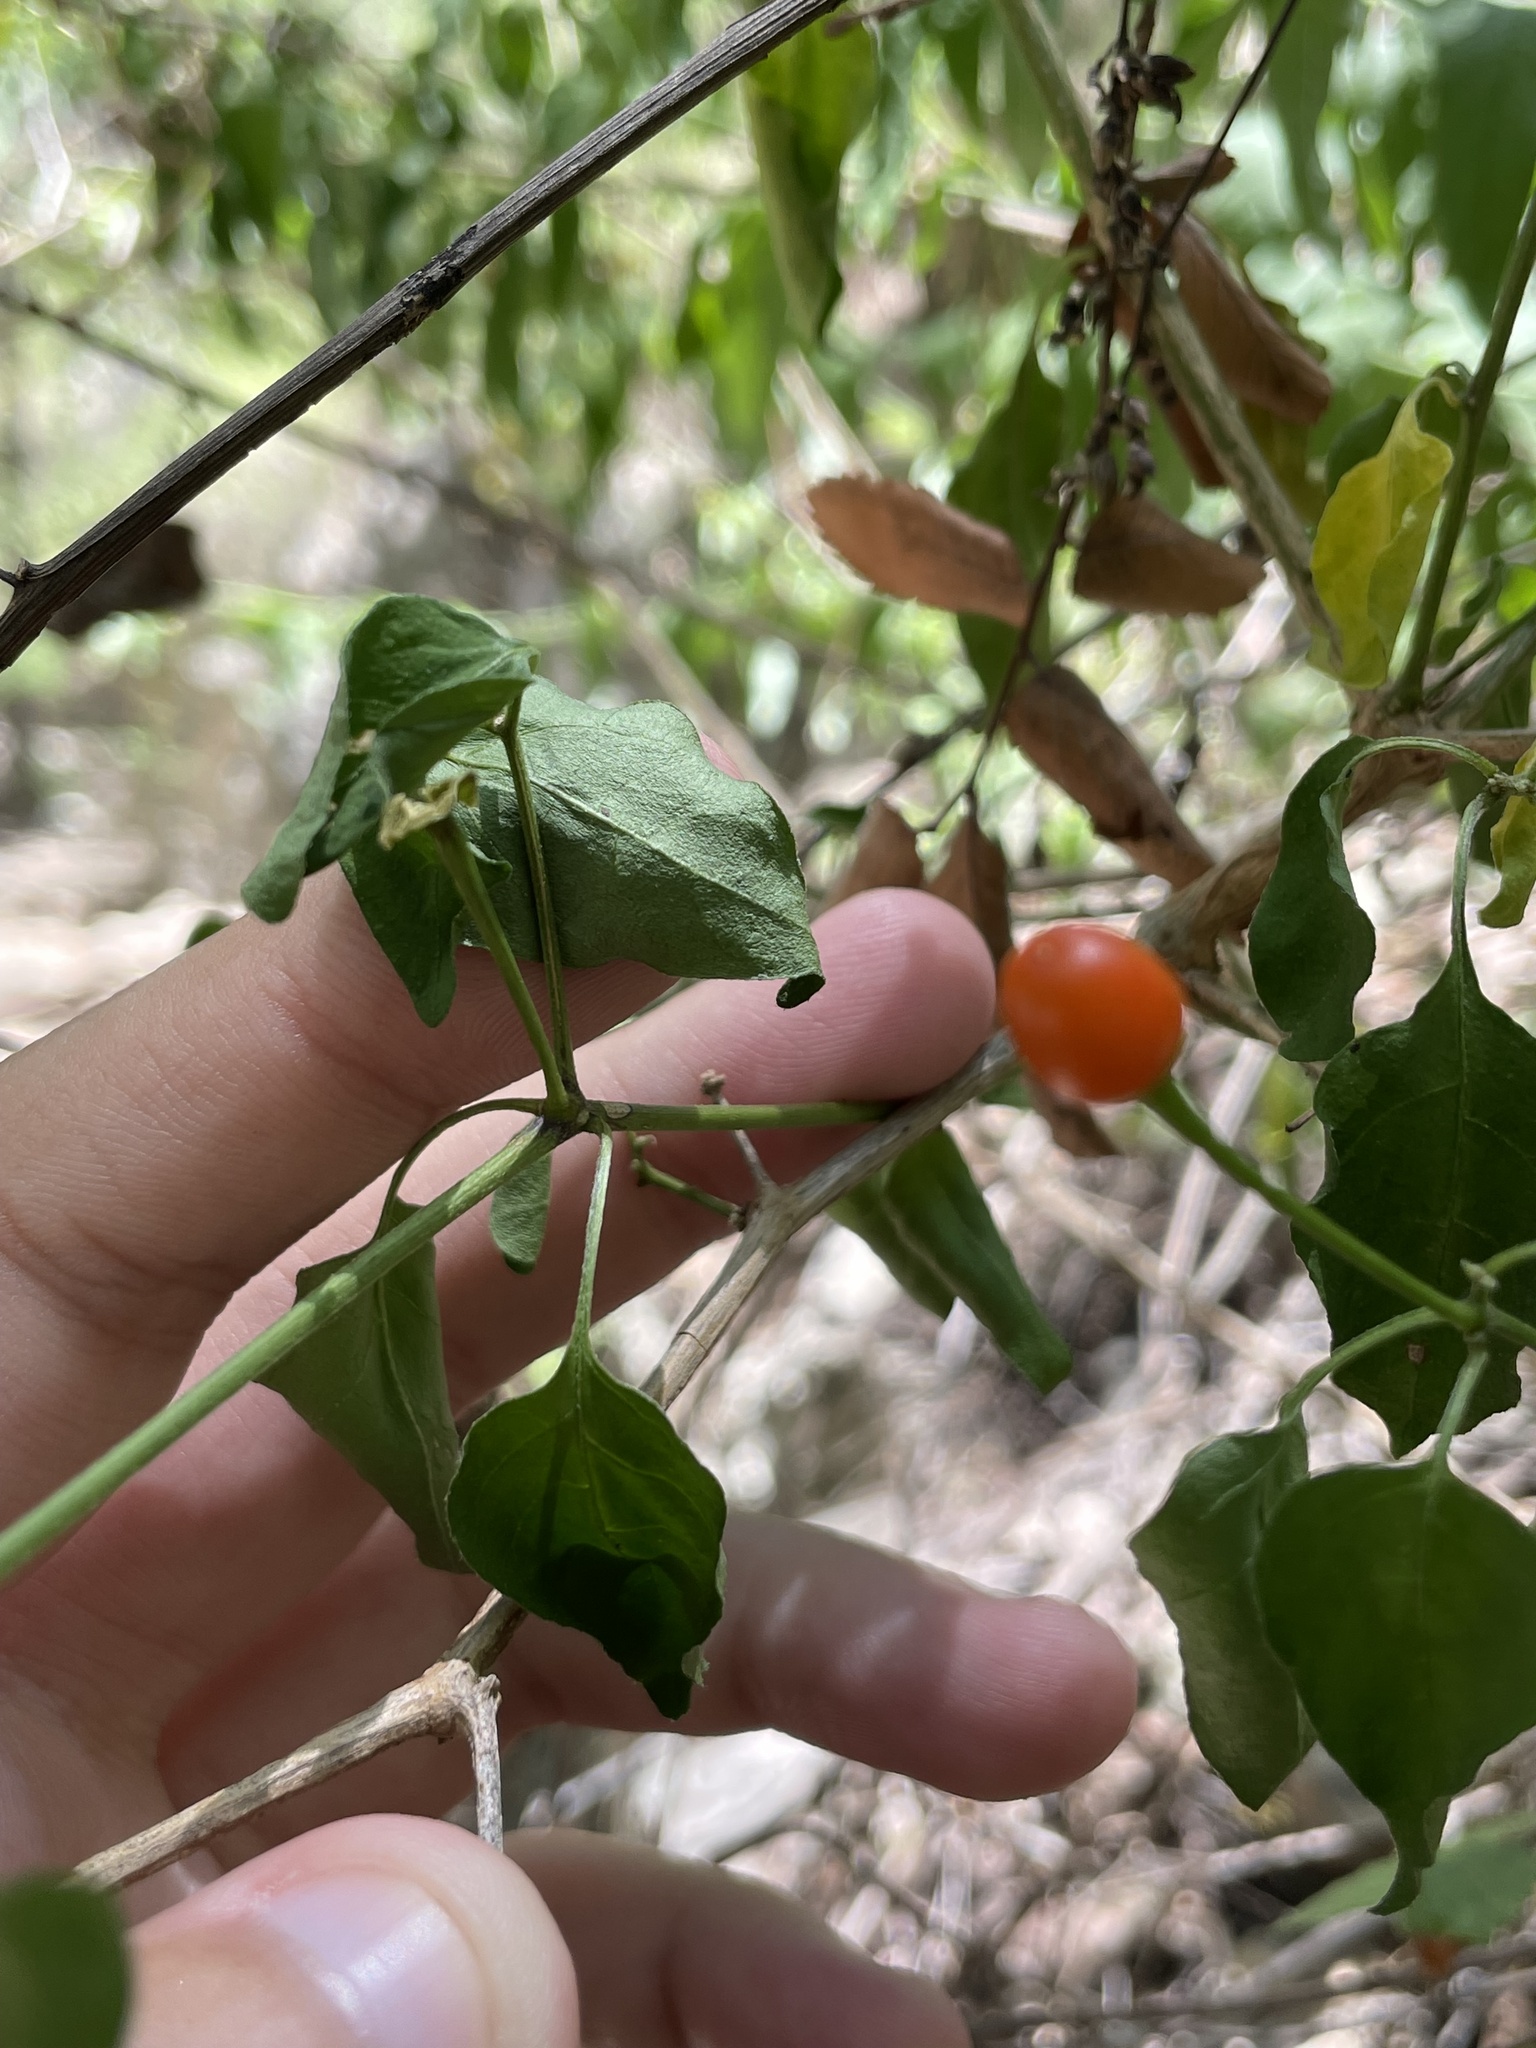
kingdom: Plantae
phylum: Tracheophyta
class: Magnoliopsida
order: Solanales
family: Solanaceae
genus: Capsicum
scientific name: Capsicum annuum
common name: Sweet pepper
